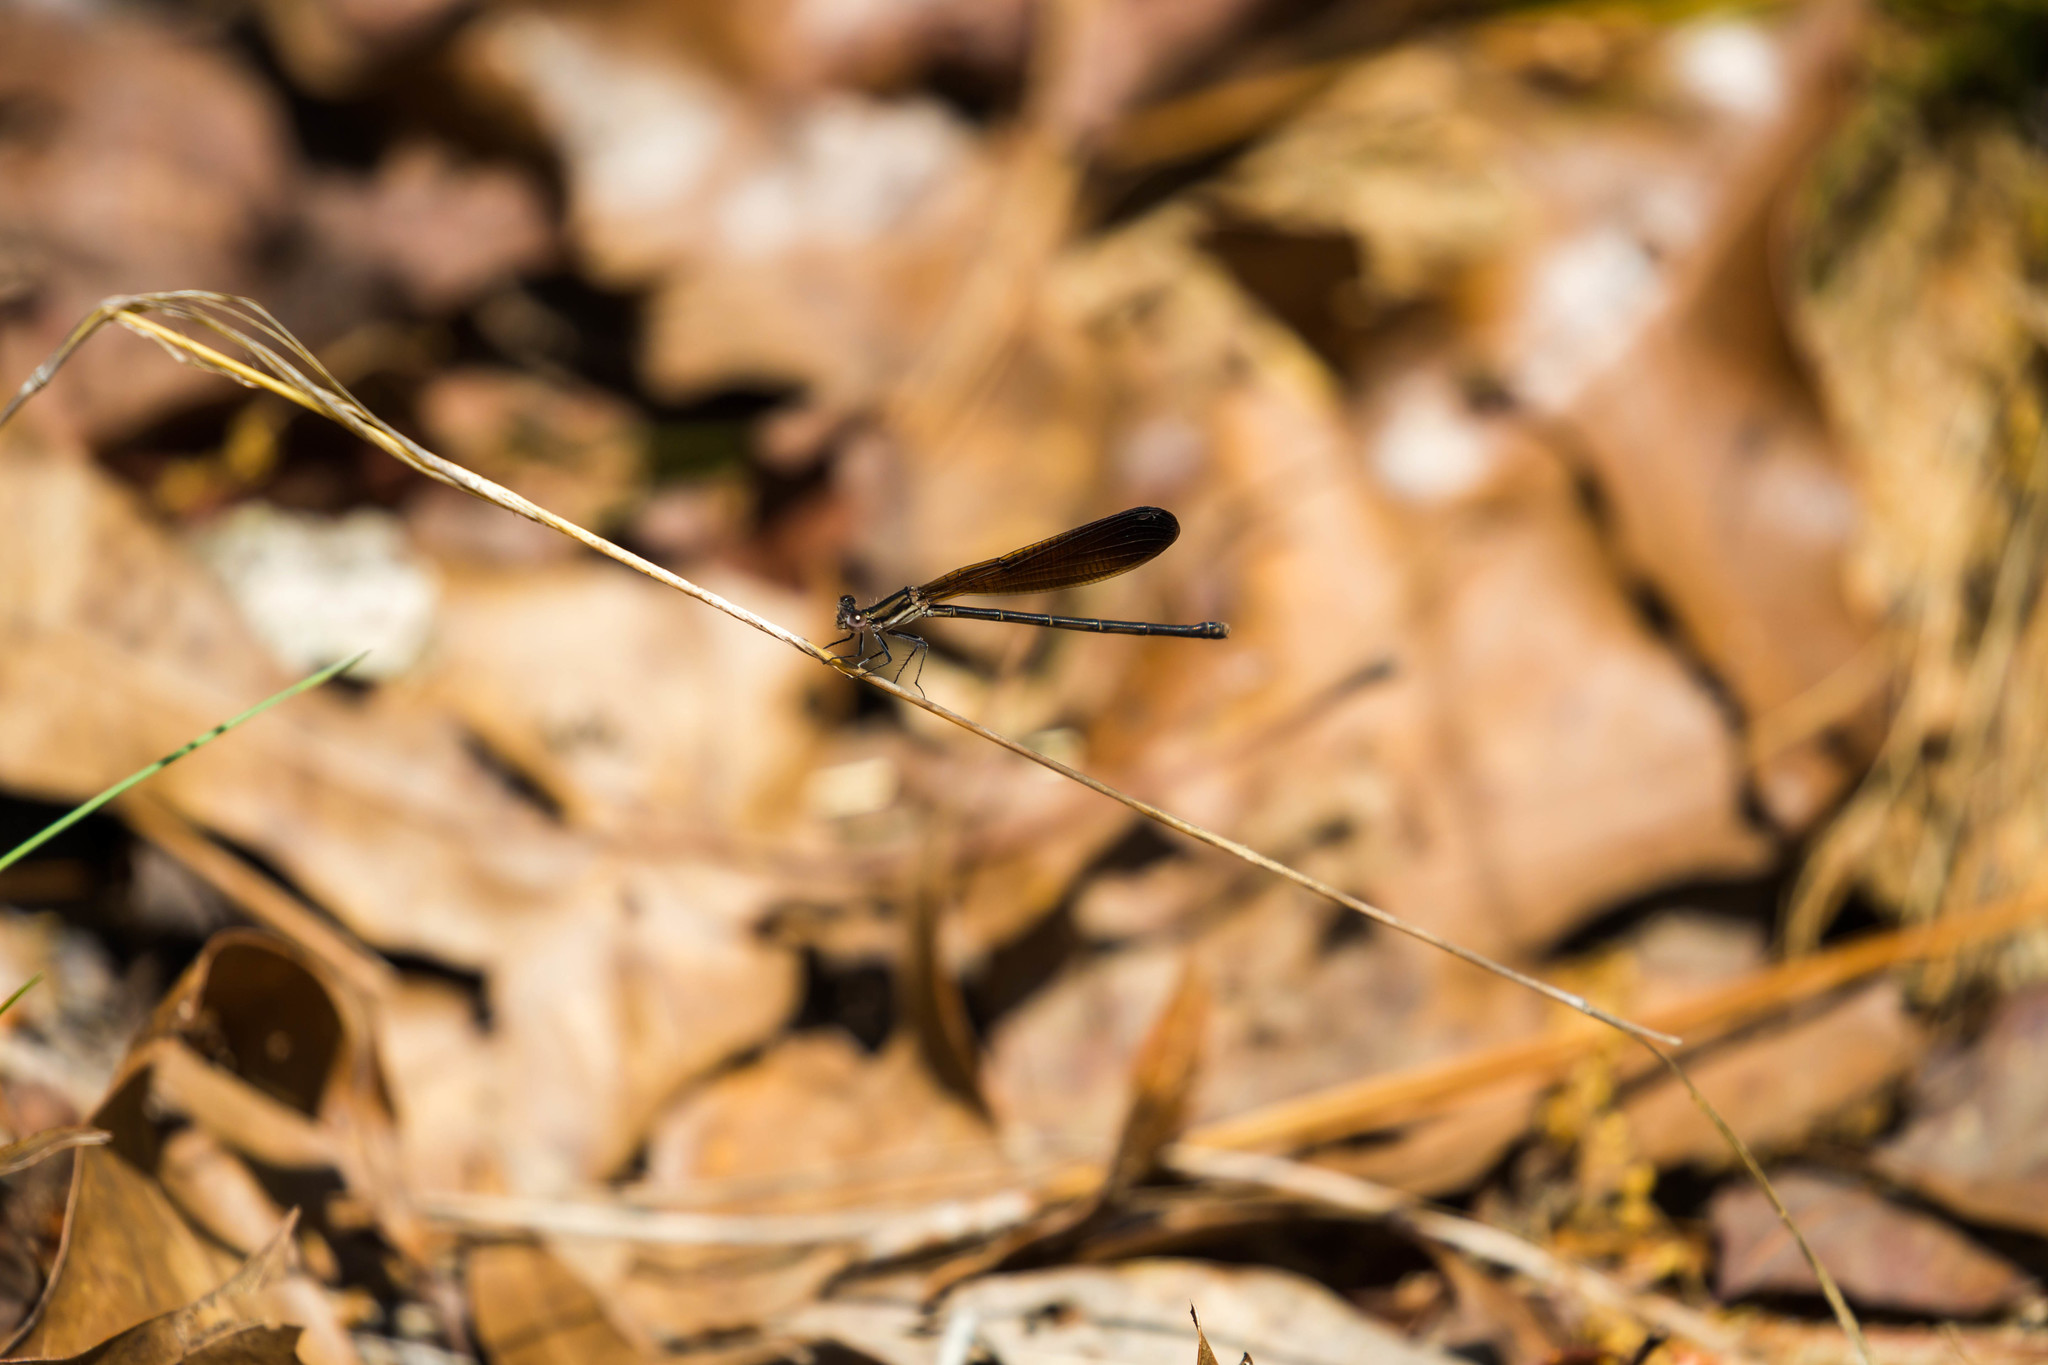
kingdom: Animalia
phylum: Arthropoda
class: Insecta
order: Odonata
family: Coenagrionidae
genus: Argia
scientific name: Argia fumipennis
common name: Variable dancer
